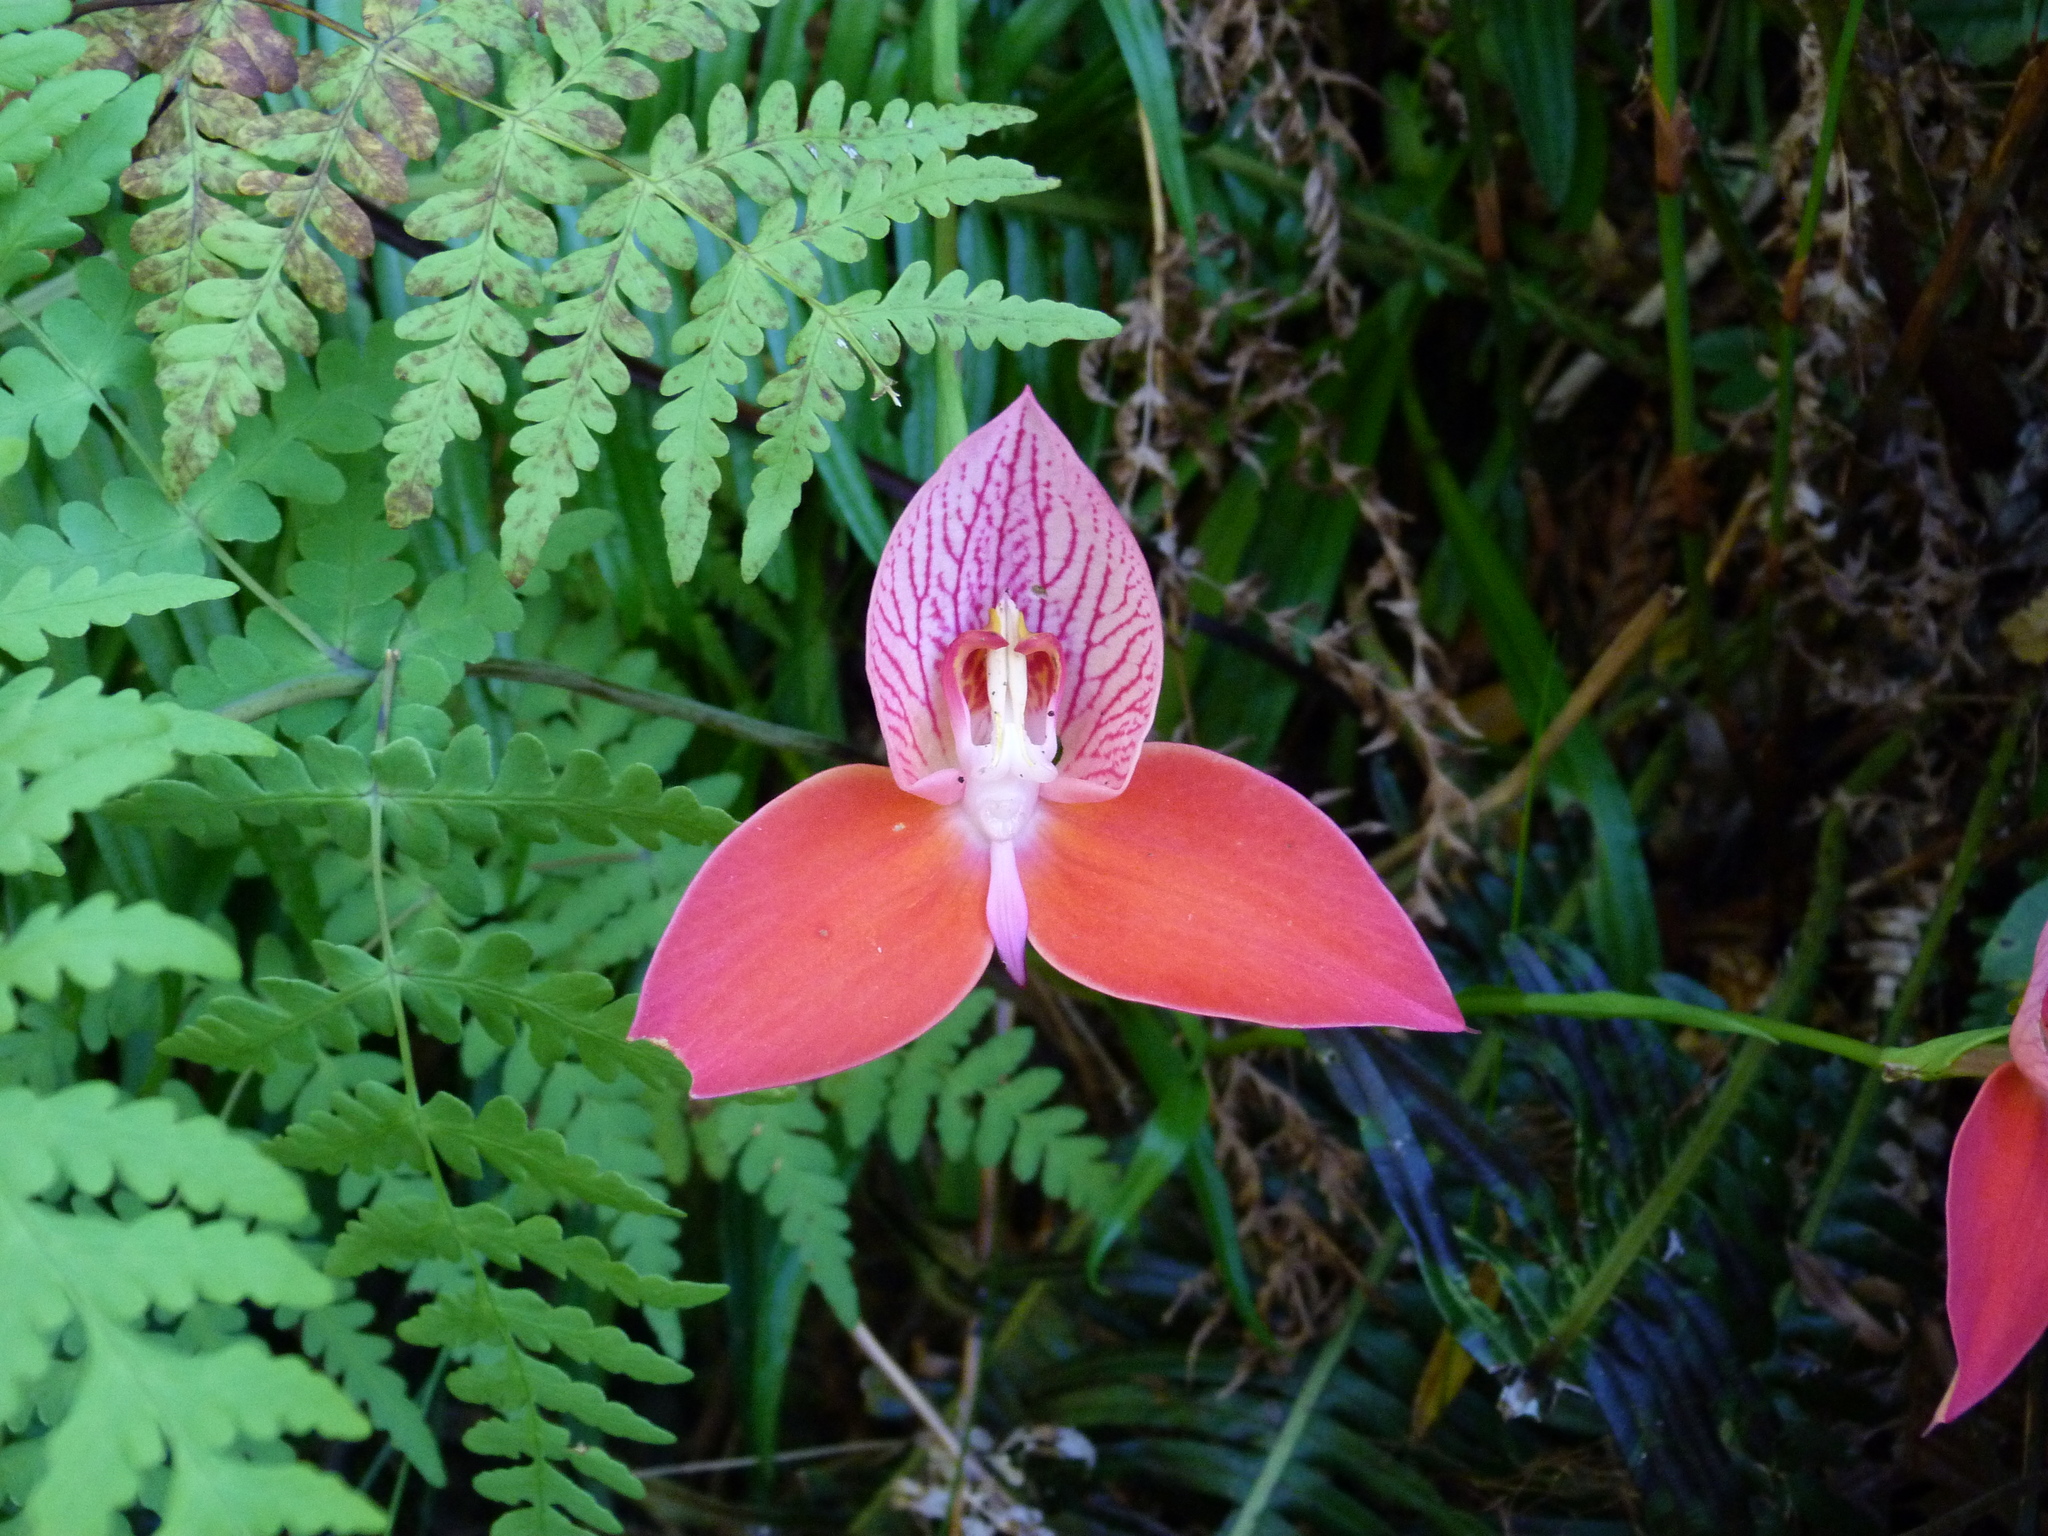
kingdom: Plantae
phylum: Tracheophyta
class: Liliopsida
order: Asparagales
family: Orchidaceae
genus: Disa
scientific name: Disa uniflora
